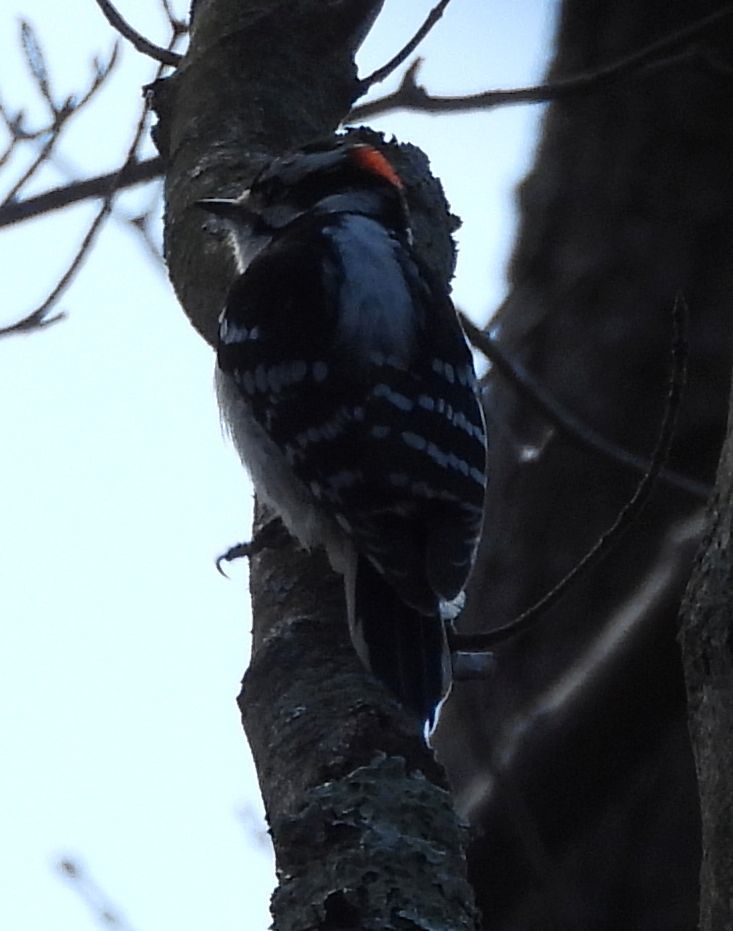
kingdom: Animalia
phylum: Chordata
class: Aves
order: Piciformes
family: Picidae
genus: Dryobates
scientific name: Dryobates pubescens
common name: Downy woodpecker
